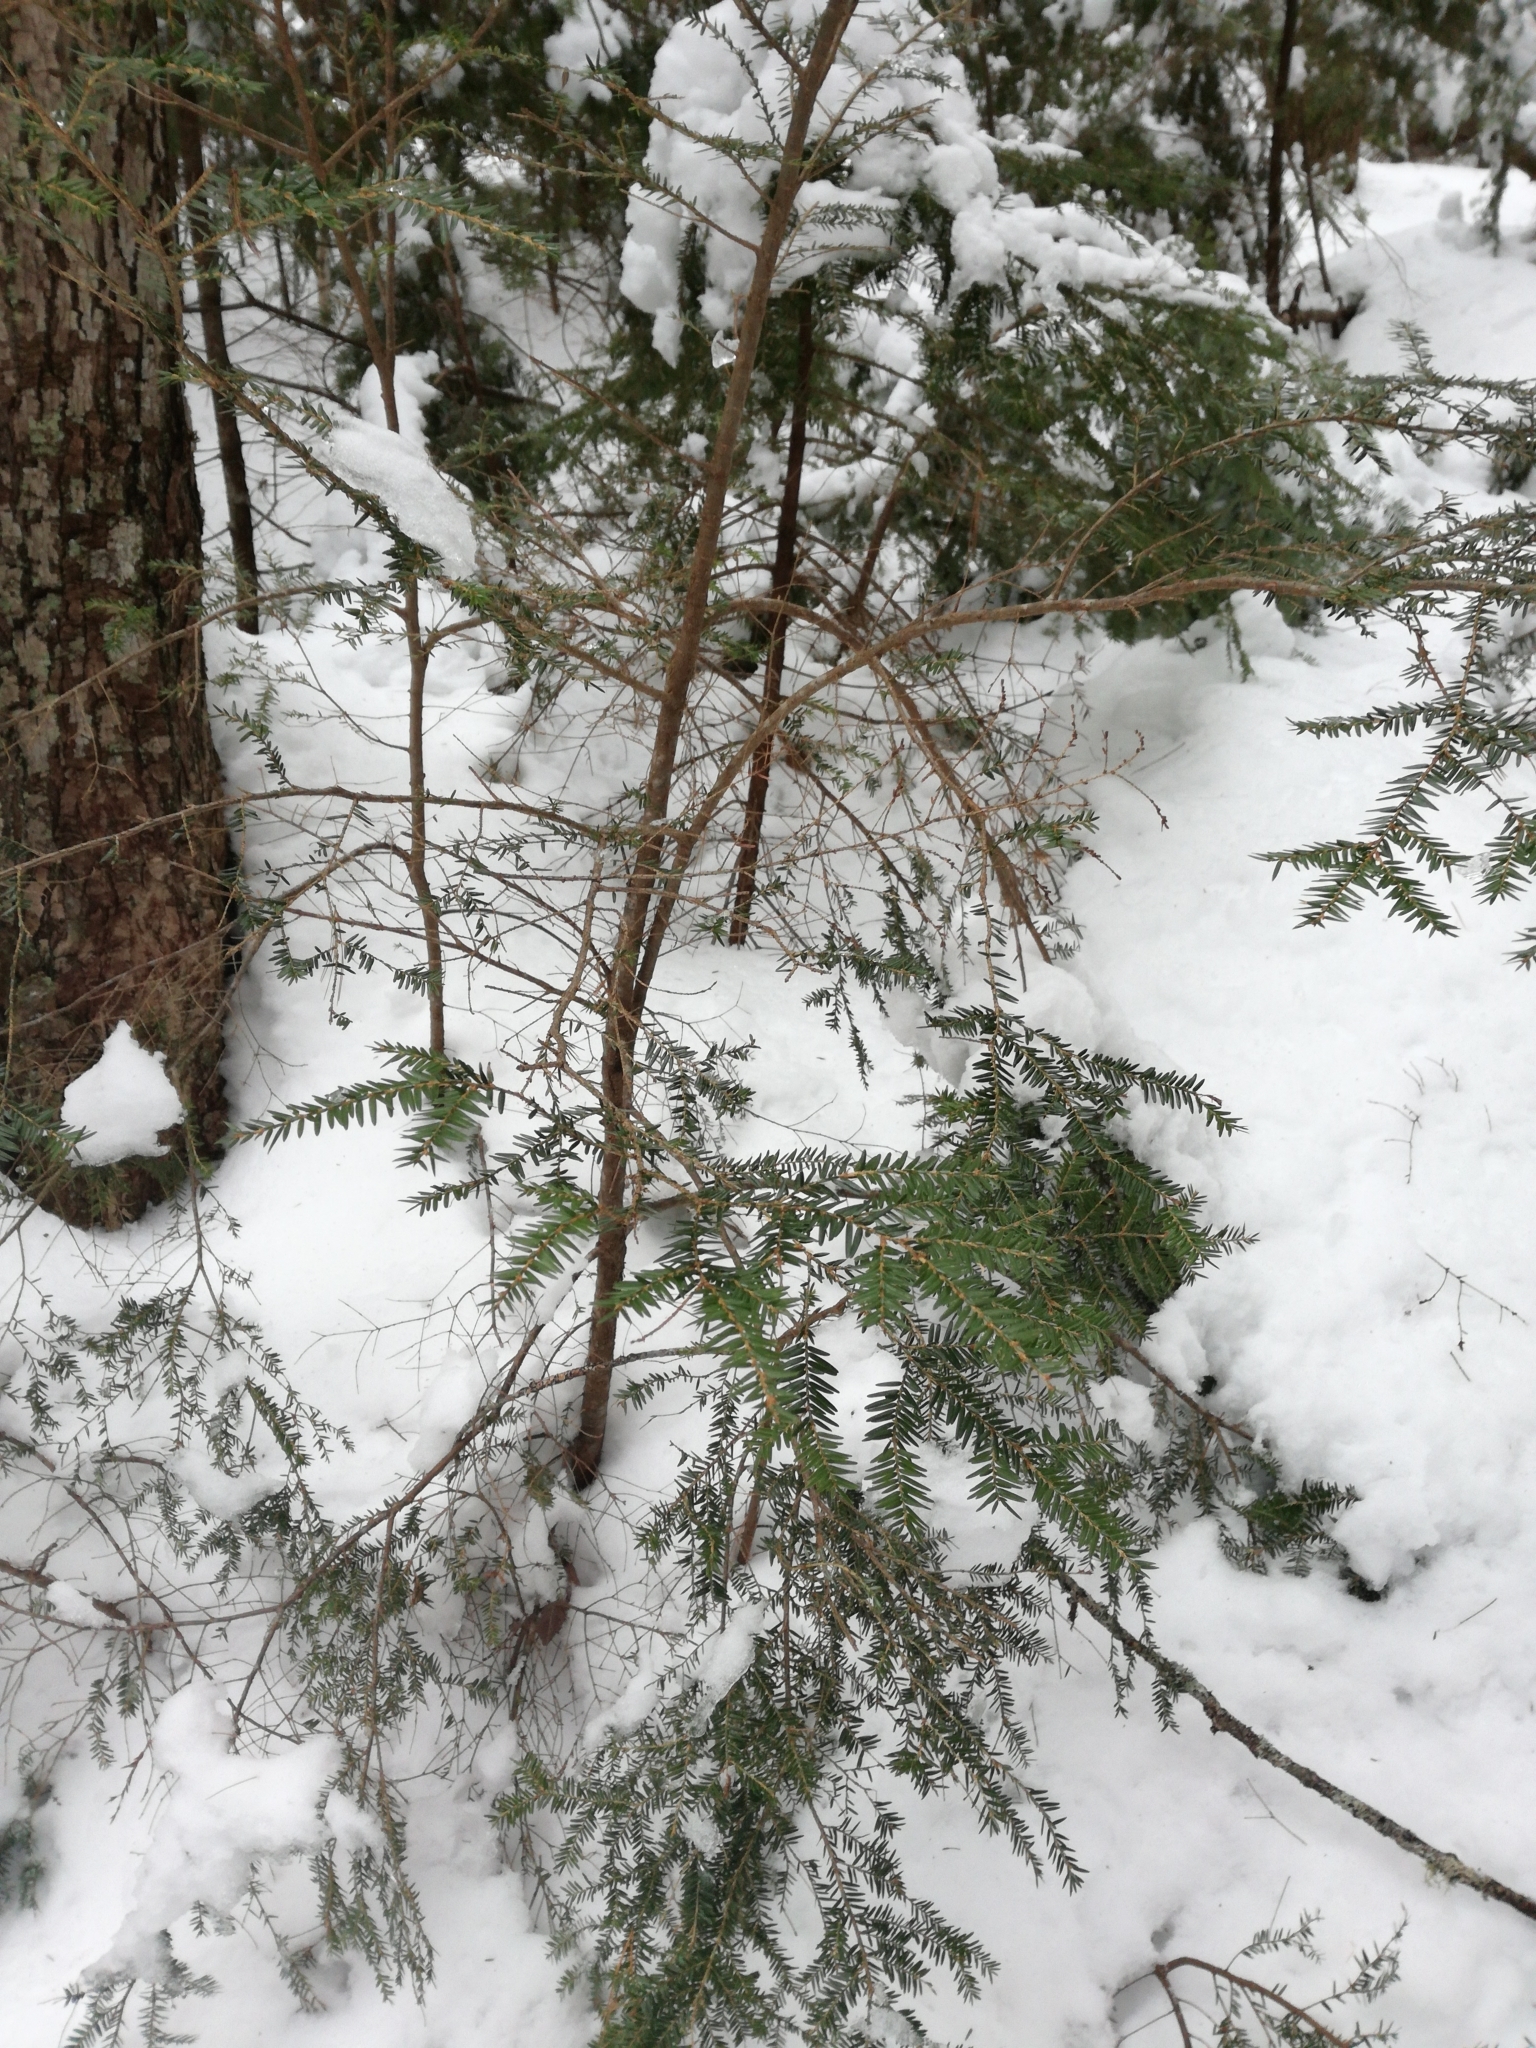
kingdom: Plantae
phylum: Tracheophyta
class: Pinopsida
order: Pinales
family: Pinaceae
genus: Tsuga
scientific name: Tsuga canadensis
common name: Eastern hemlock
